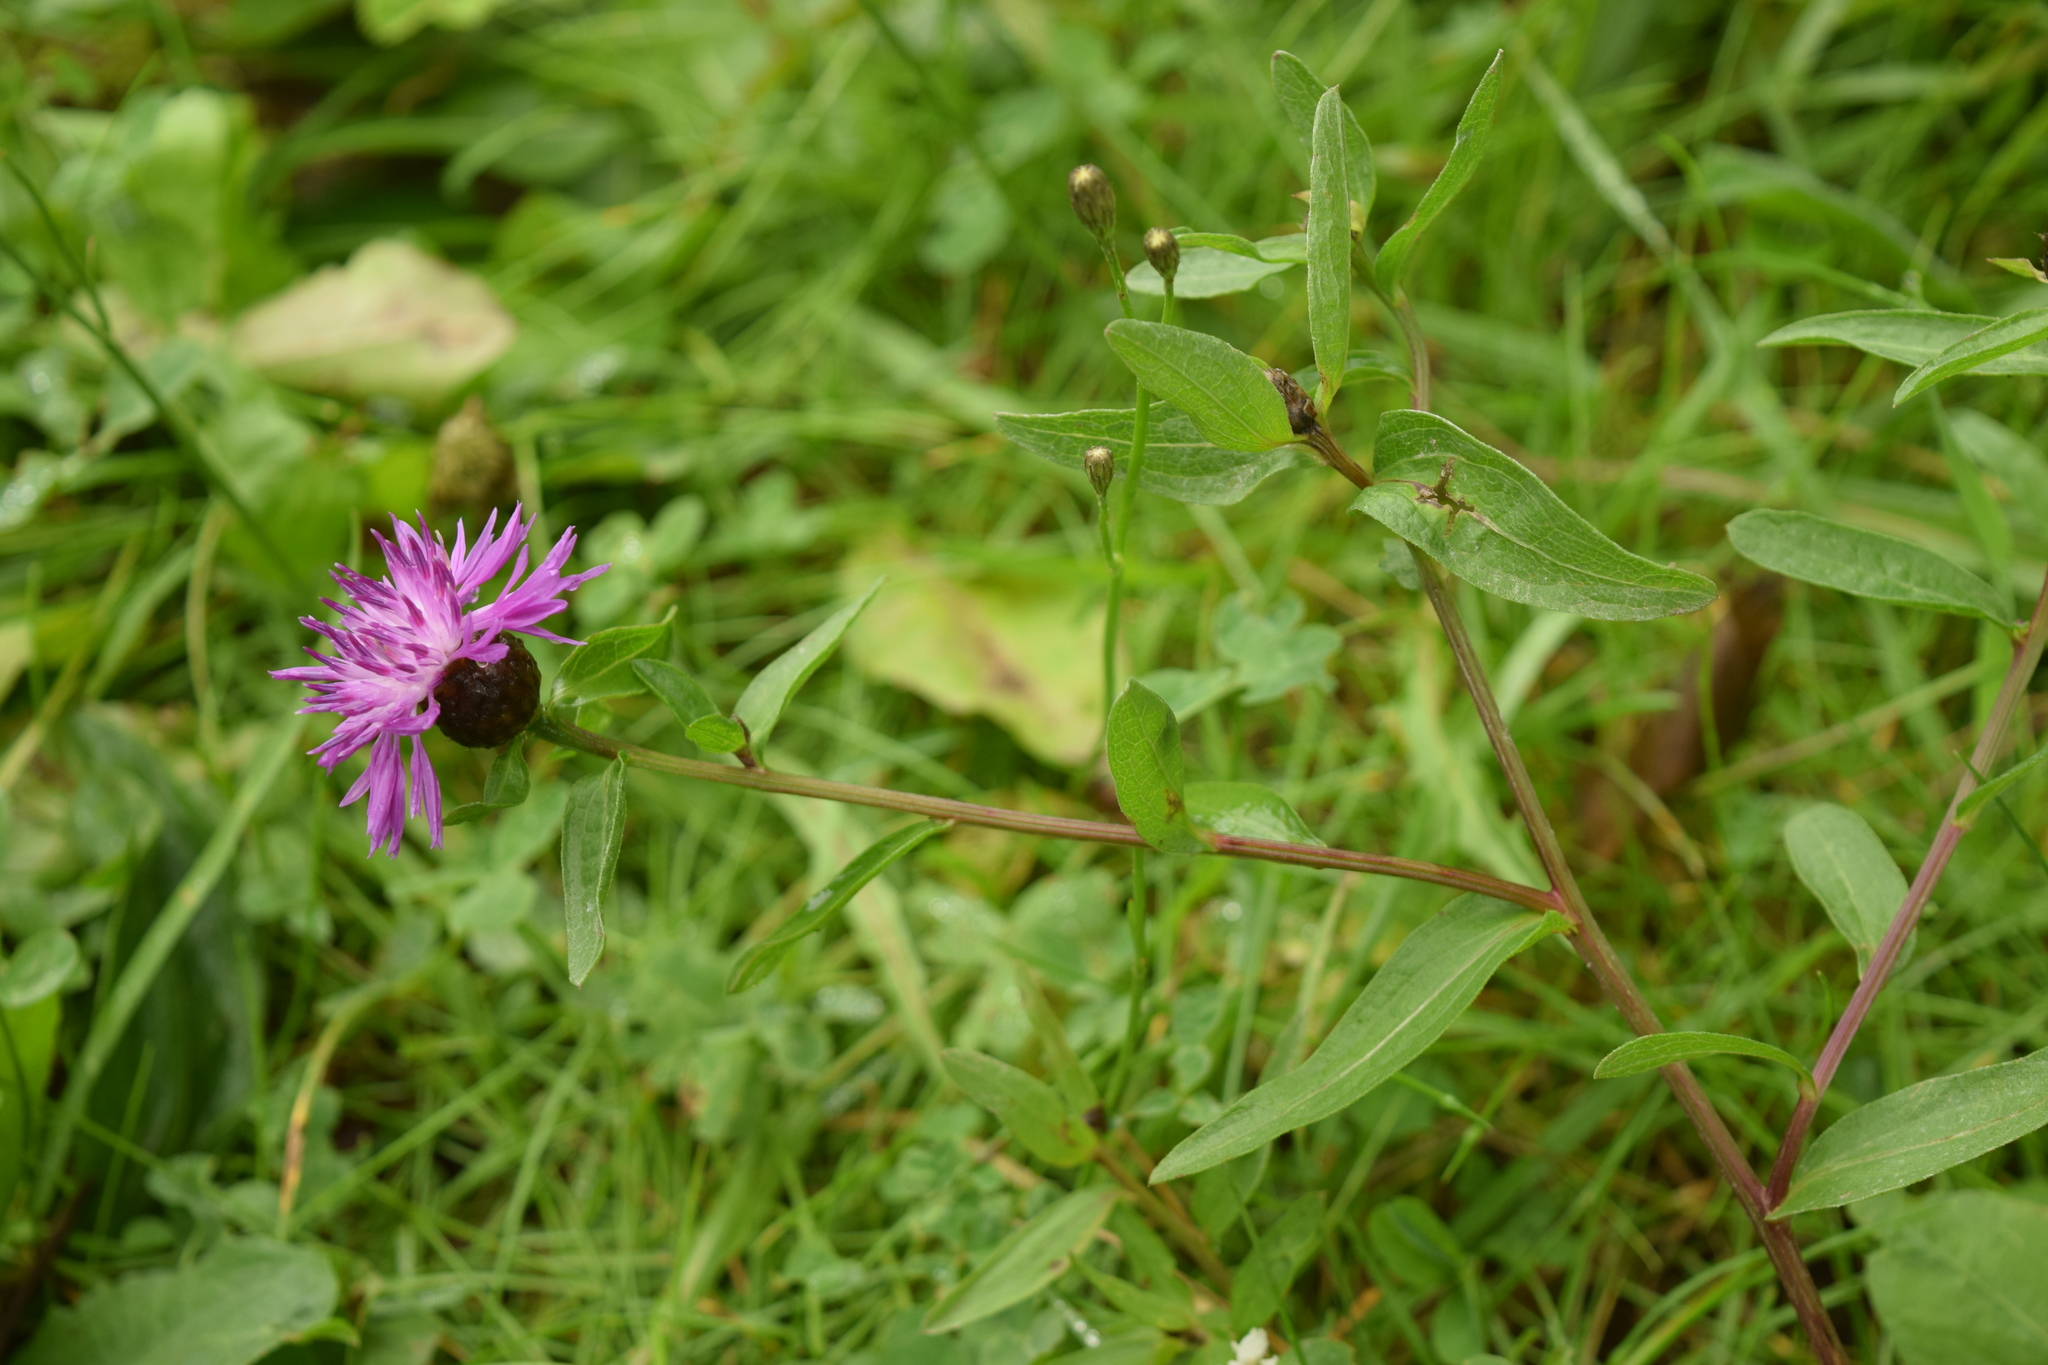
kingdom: Plantae
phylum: Tracheophyta
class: Magnoliopsida
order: Asterales
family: Asteraceae
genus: Centaurea
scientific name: Centaurea jacea
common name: Brown knapweed
